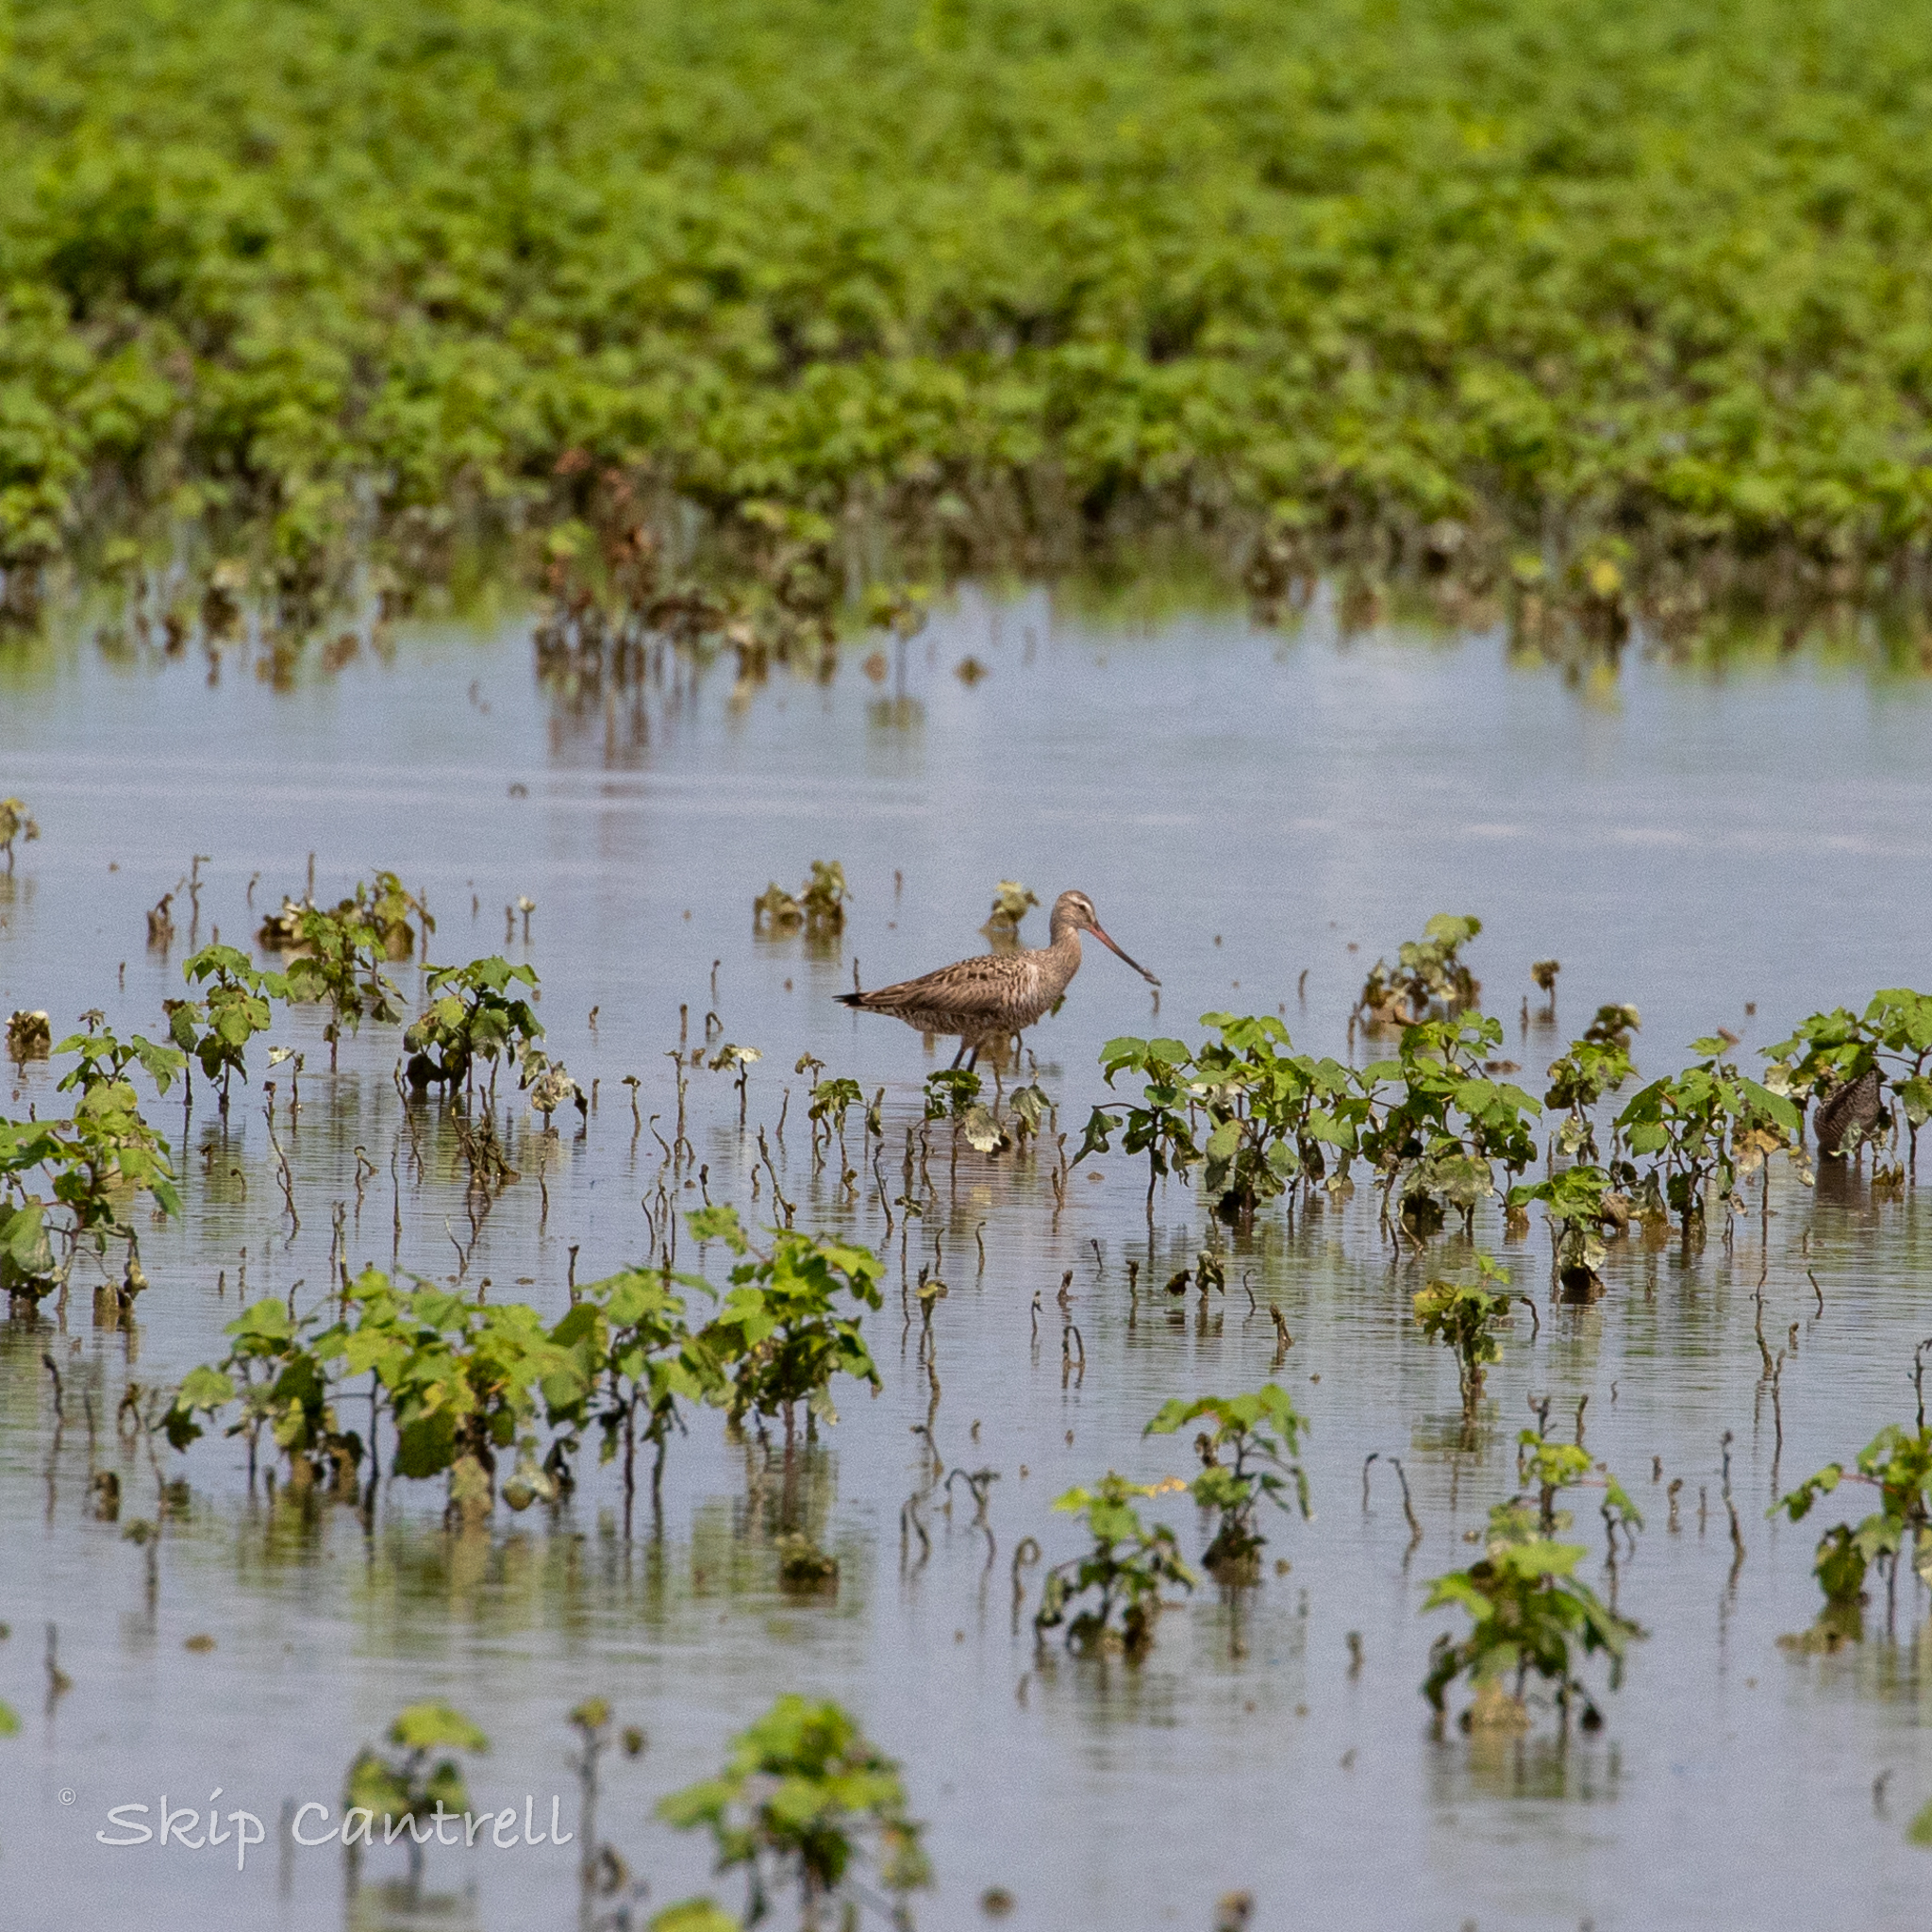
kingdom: Animalia
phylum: Chordata
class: Aves
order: Charadriiformes
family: Scolopacidae
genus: Limosa
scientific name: Limosa haemastica
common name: Hudsonian godwit
